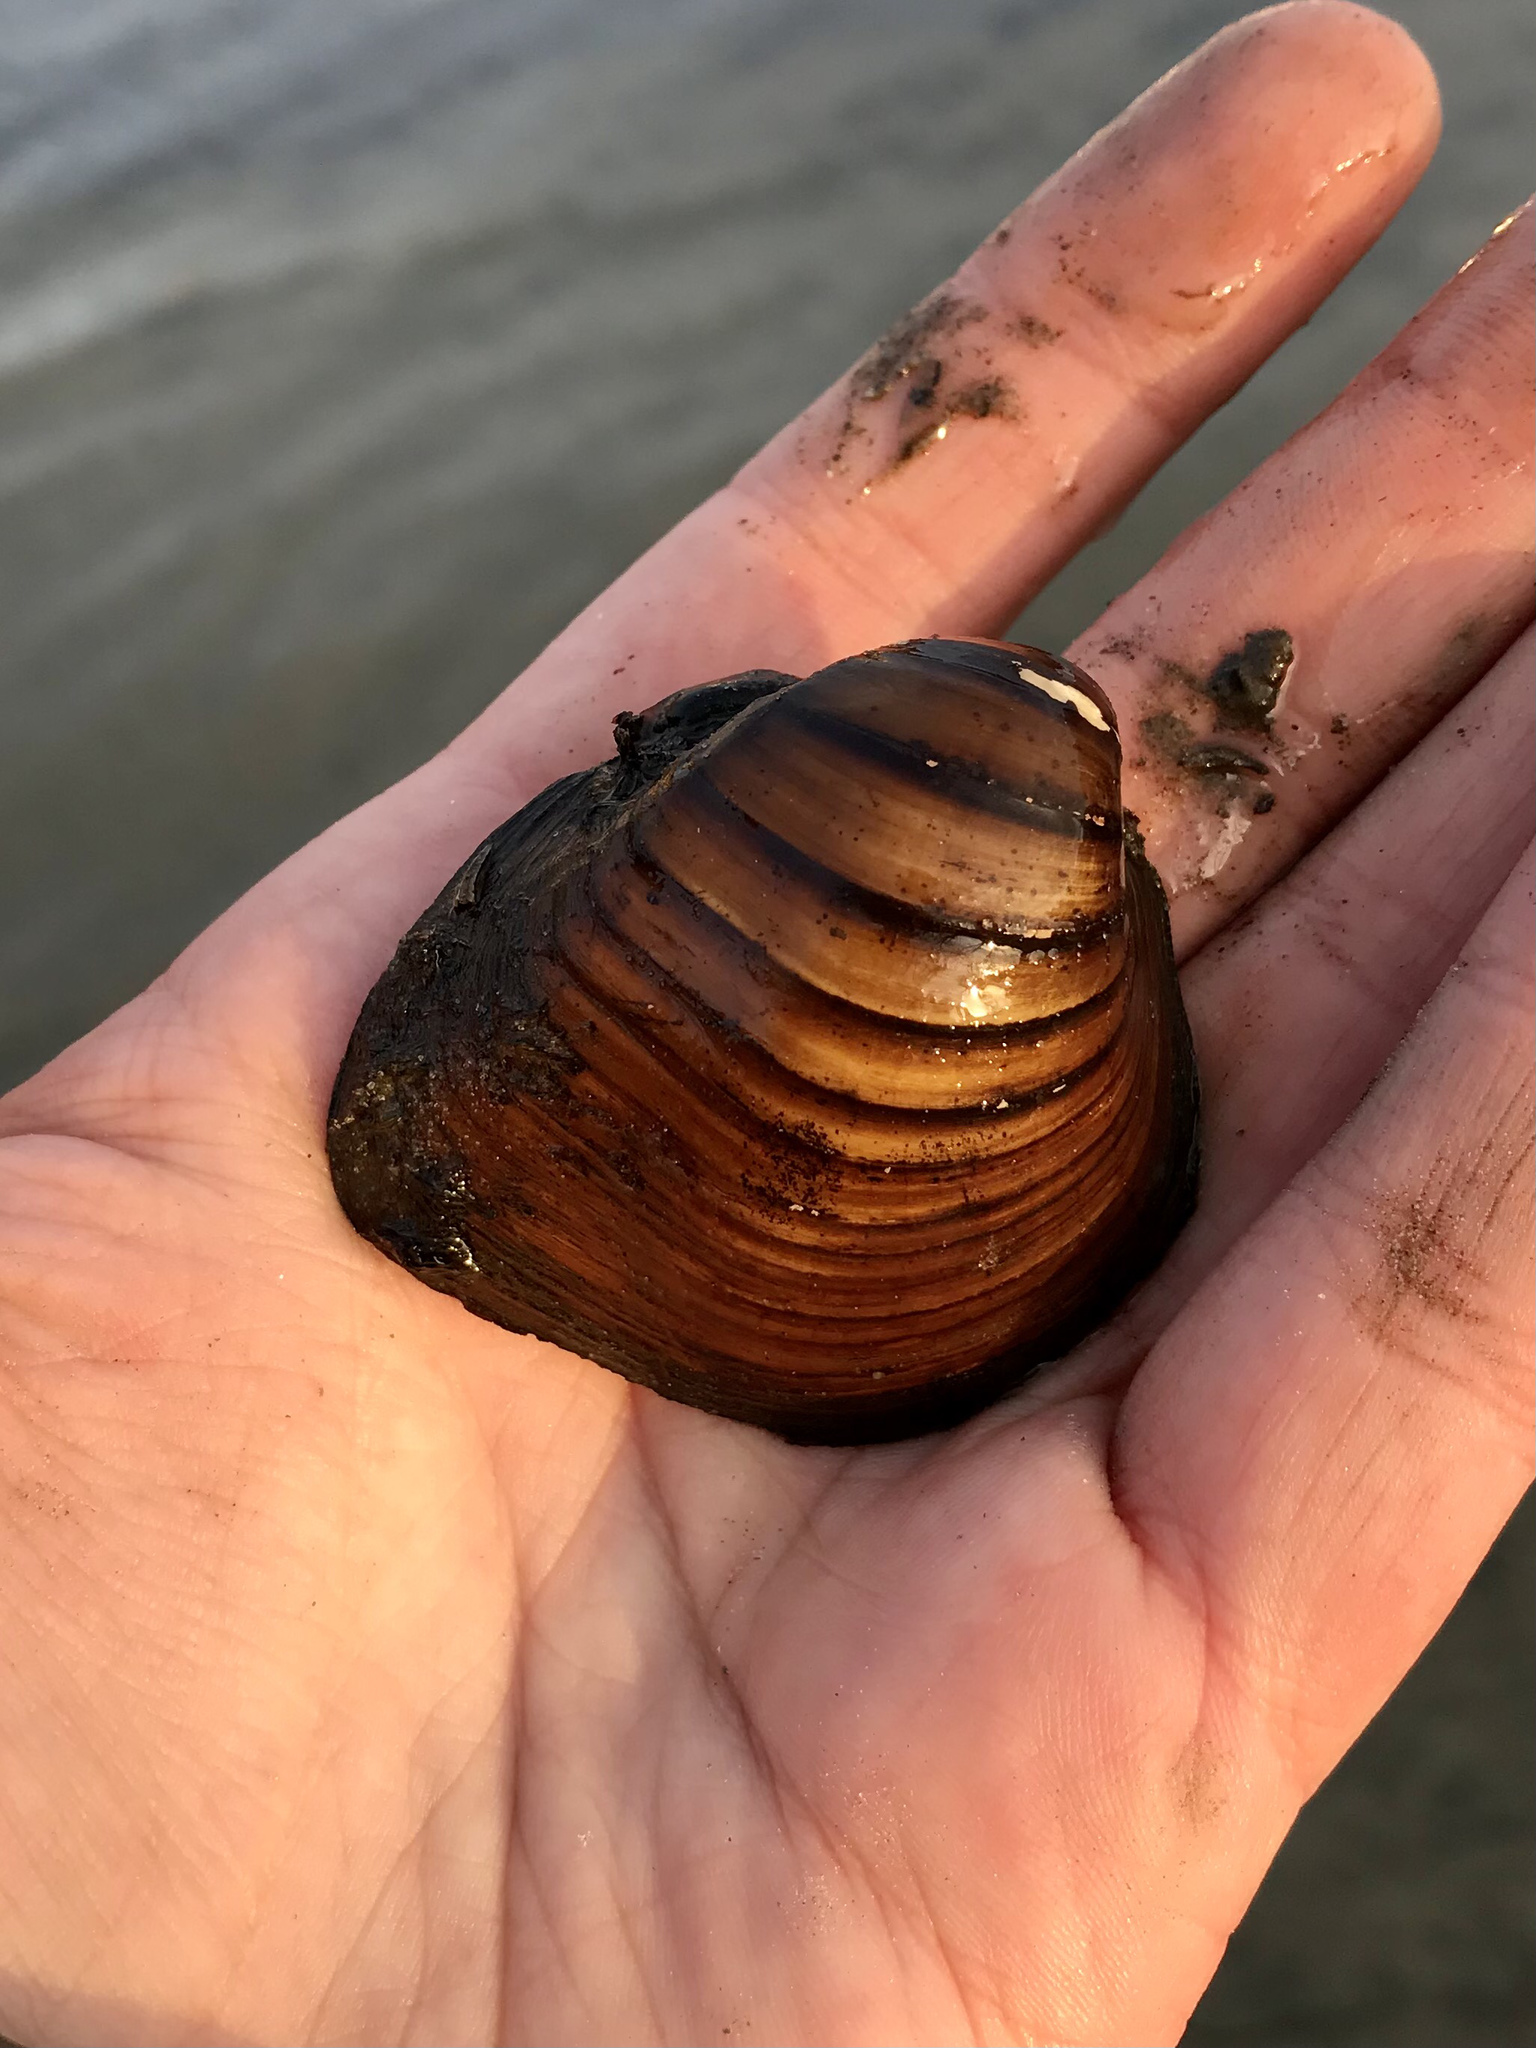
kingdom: Animalia
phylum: Mollusca
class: Bivalvia
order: Unionida
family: Unionidae
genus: Fusconaia
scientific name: Fusconaia flava
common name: Wabash pigtoe
